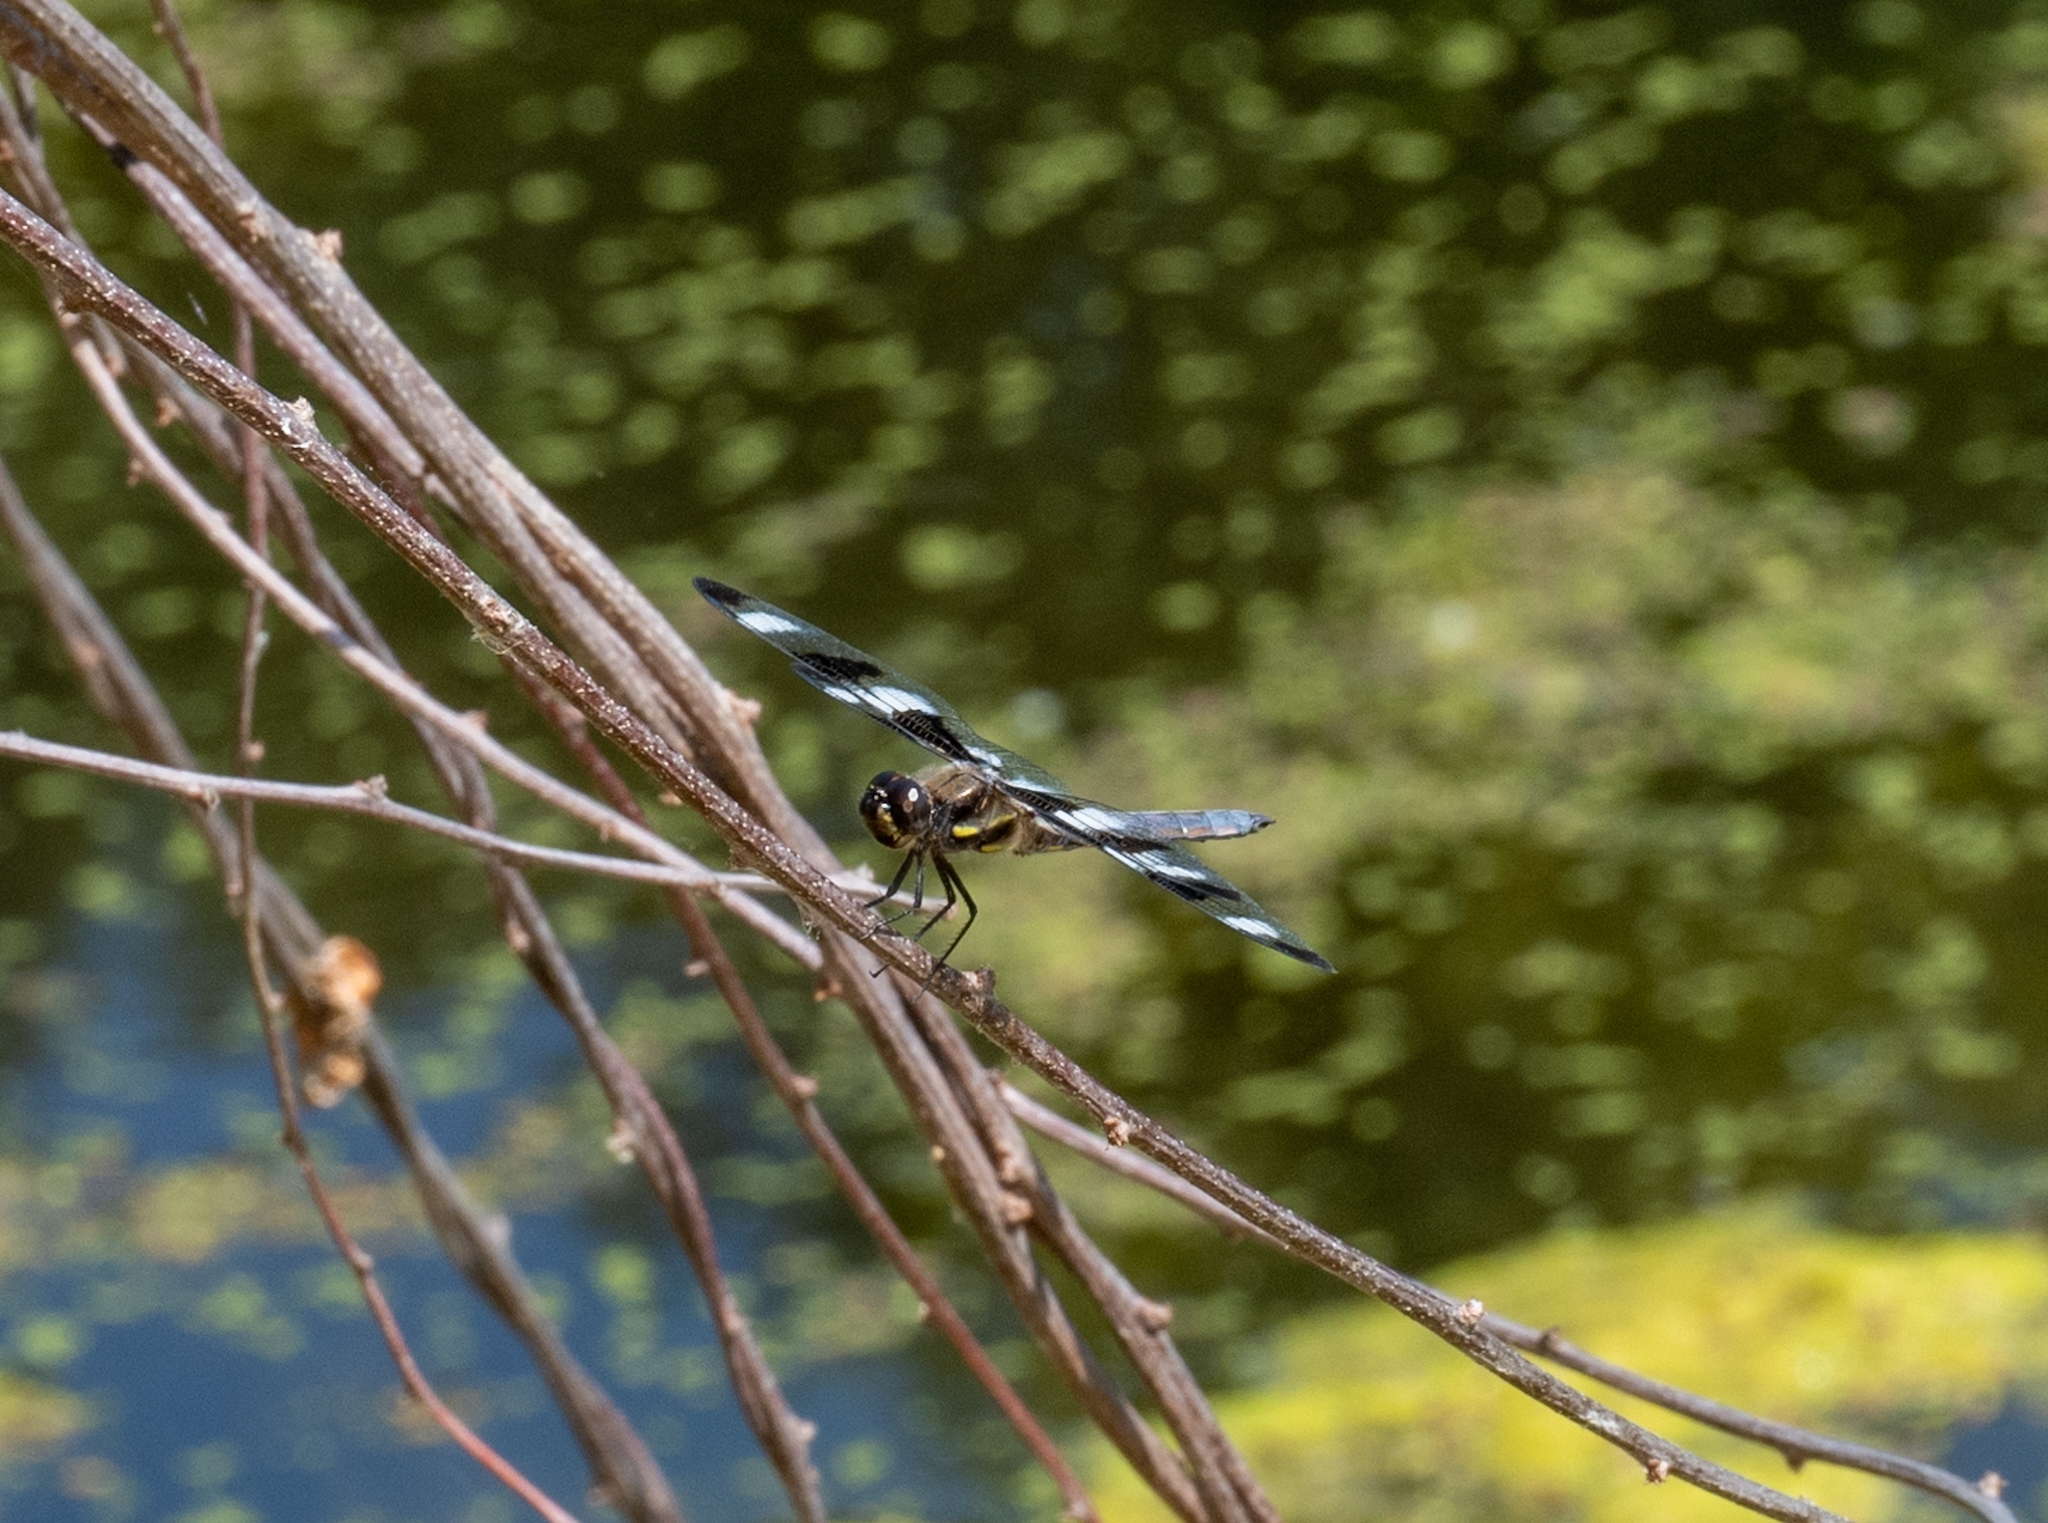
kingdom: Animalia
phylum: Arthropoda
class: Insecta
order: Odonata
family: Libellulidae
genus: Libellula
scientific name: Libellula pulchella
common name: Twelve-spotted skimmer
